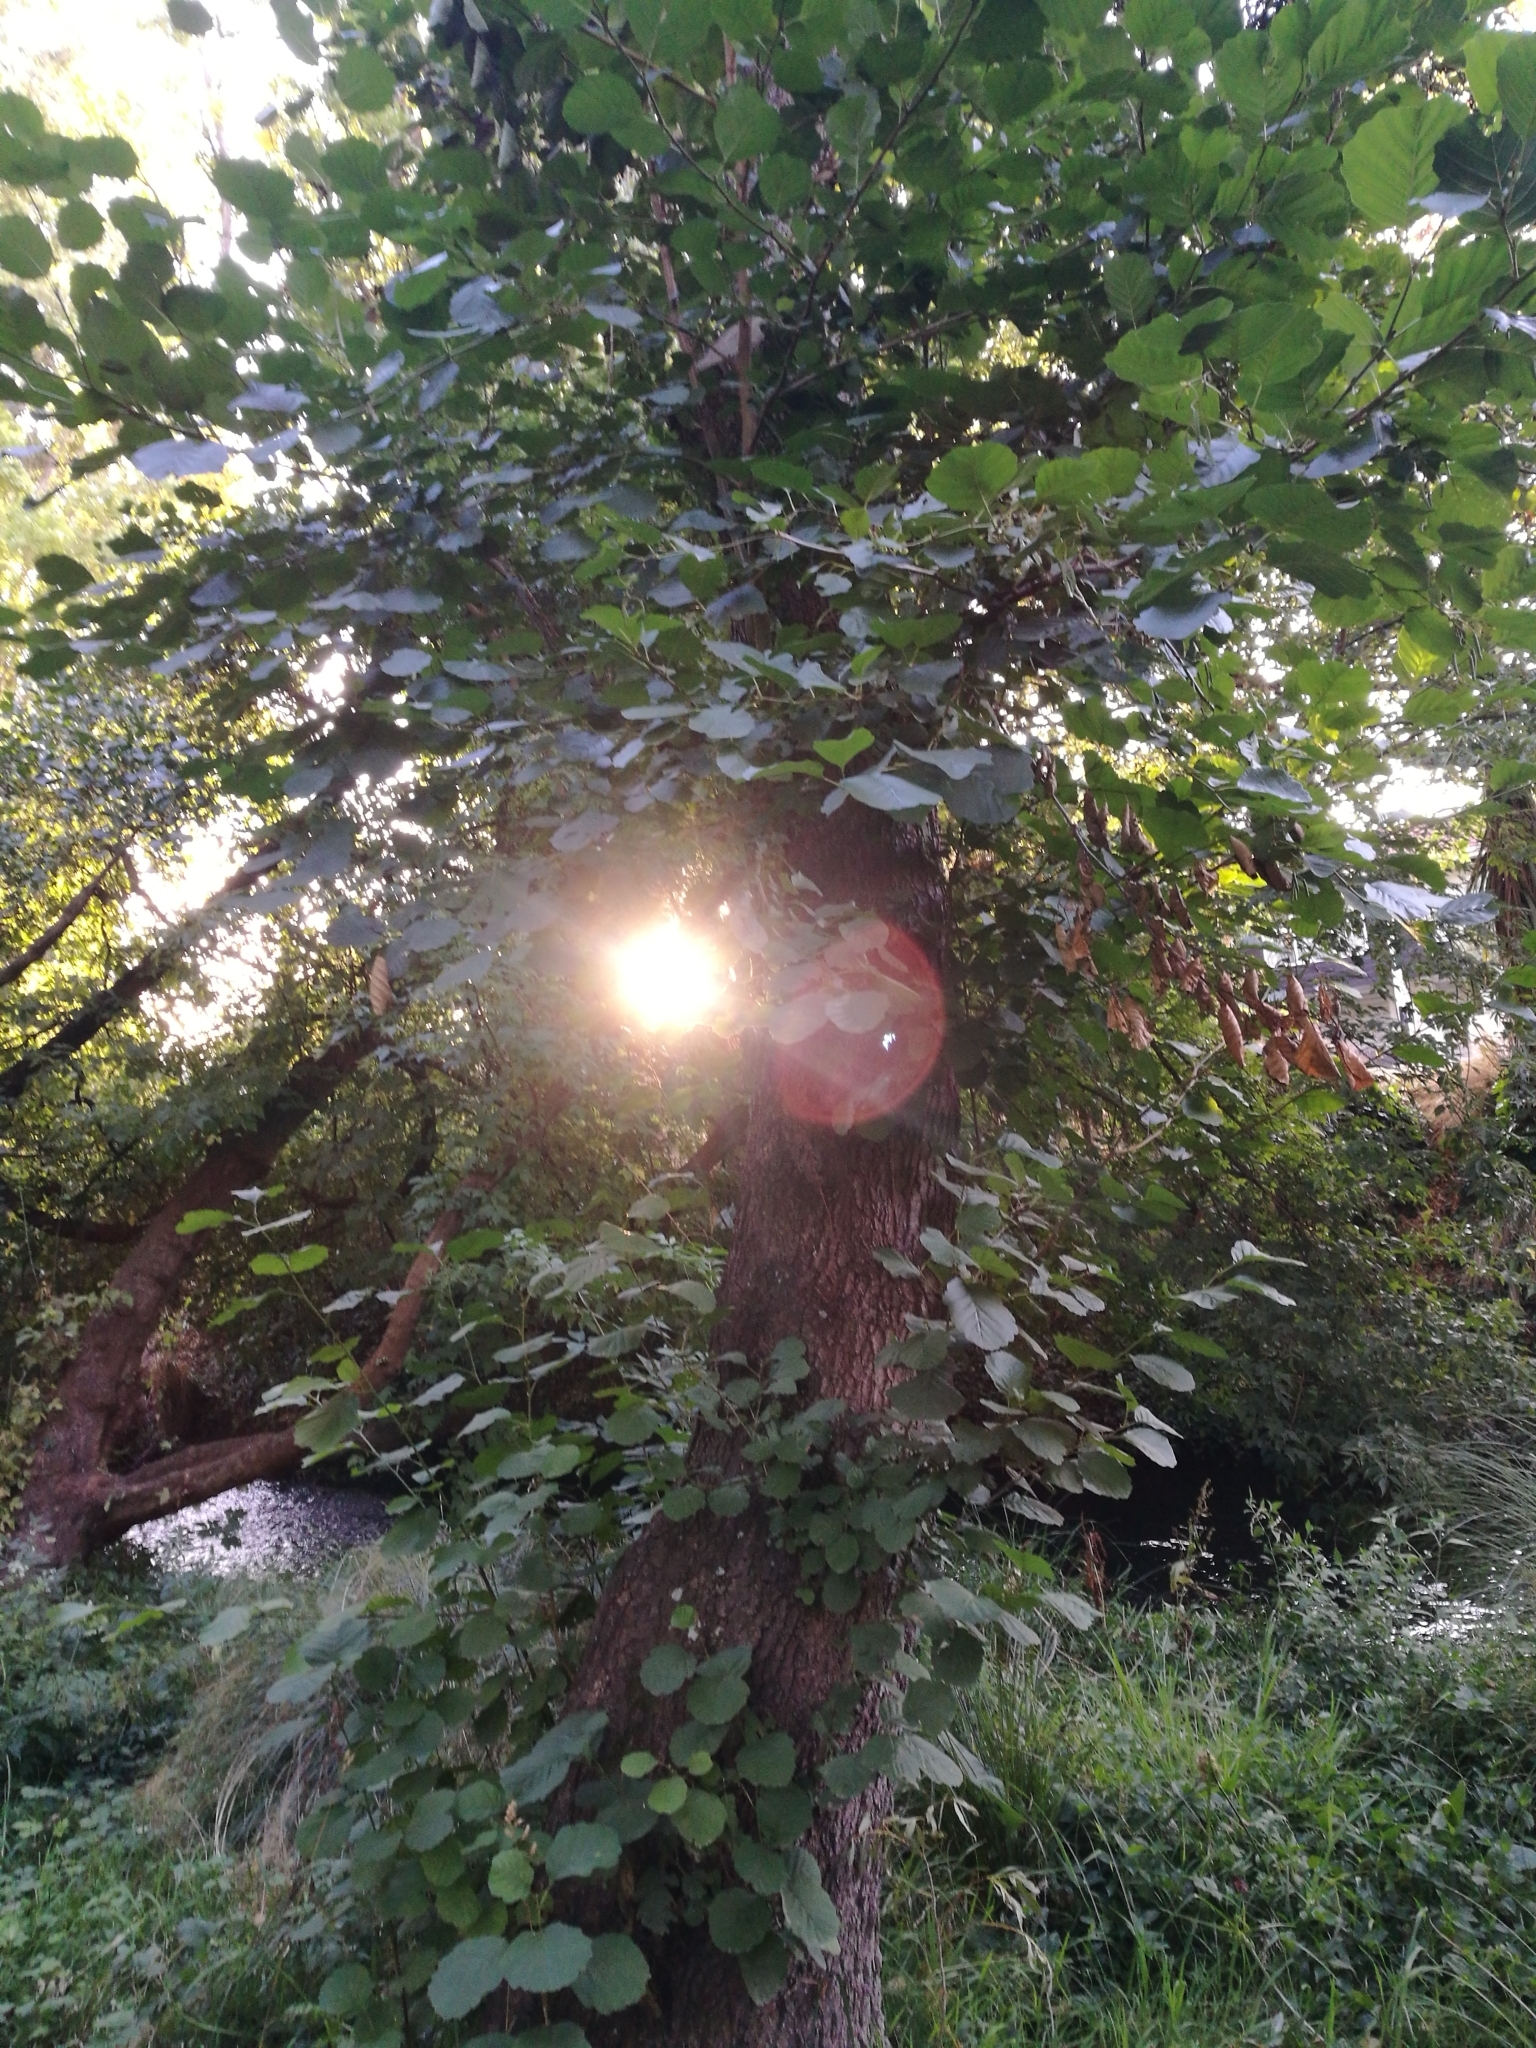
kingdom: Plantae
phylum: Tracheophyta
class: Magnoliopsida
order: Fagales
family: Betulaceae
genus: Alnus
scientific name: Alnus glutinosa
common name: Black alder
